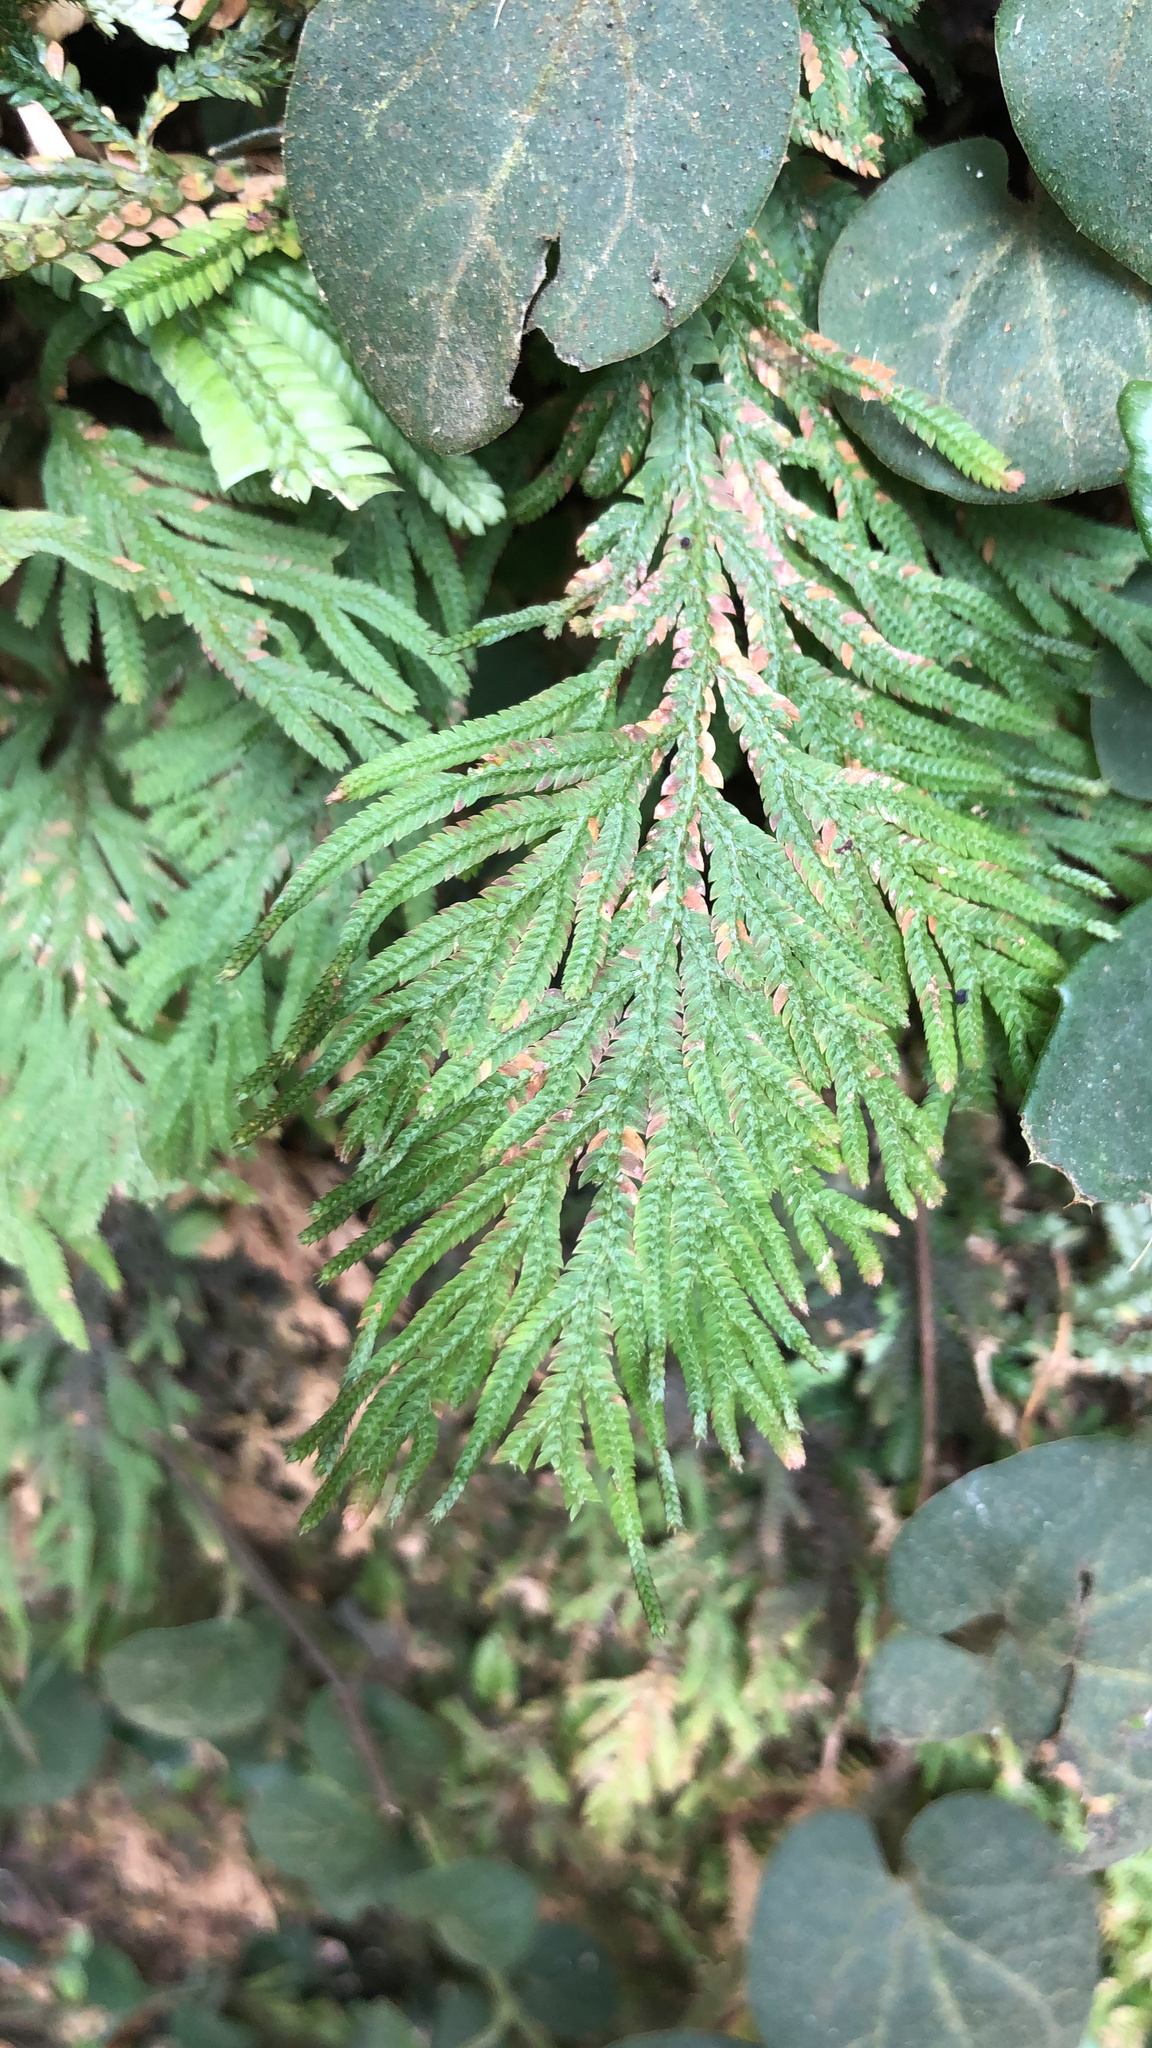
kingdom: Plantae
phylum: Tracheophyta
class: Lycopodiopsida
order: Selaginellales
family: Selaginellaceae
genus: Selaginella
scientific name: Selaginella doederleinii
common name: Greater selaginella
